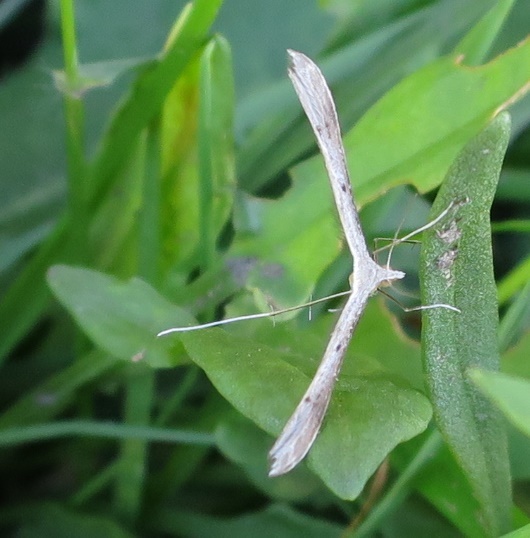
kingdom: Animalia
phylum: Arthropoda
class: Insecta
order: Lepidoptera
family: Pterophoridae
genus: Stenoptilia
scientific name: Stenoptilia zophodactylus
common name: Dowdy plume
